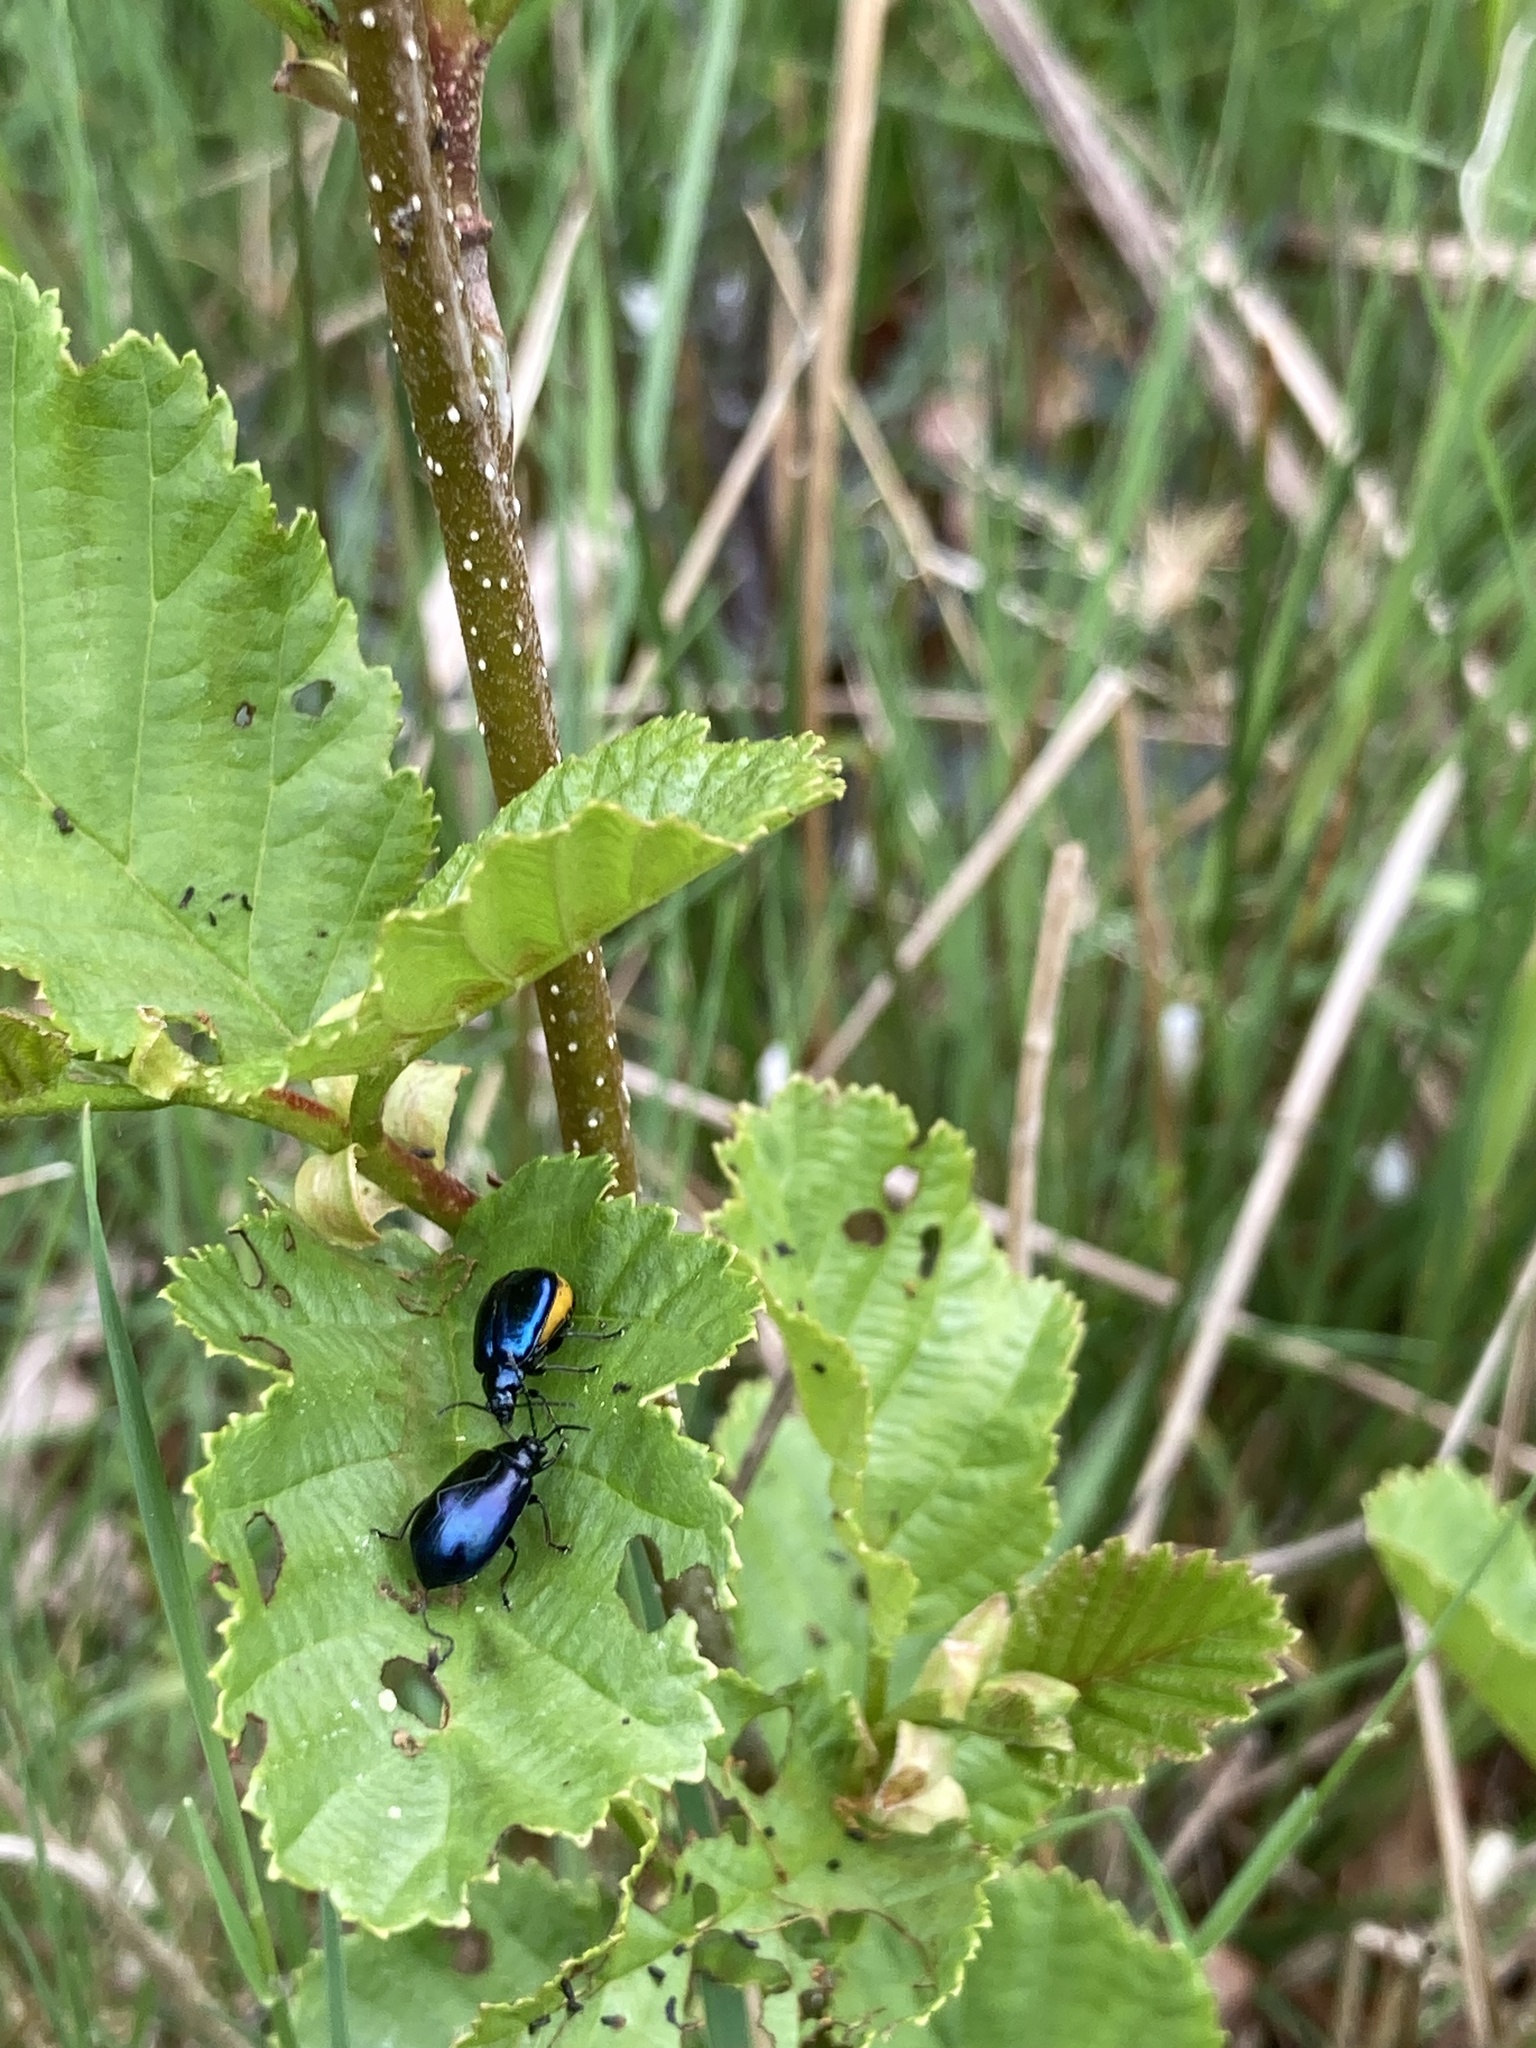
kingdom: Animalia
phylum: Arthropoda
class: Insecta
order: Coleoptera
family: Chrysomelidae
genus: Agelastica
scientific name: Agelastica alni
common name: Alder leaf beetle
